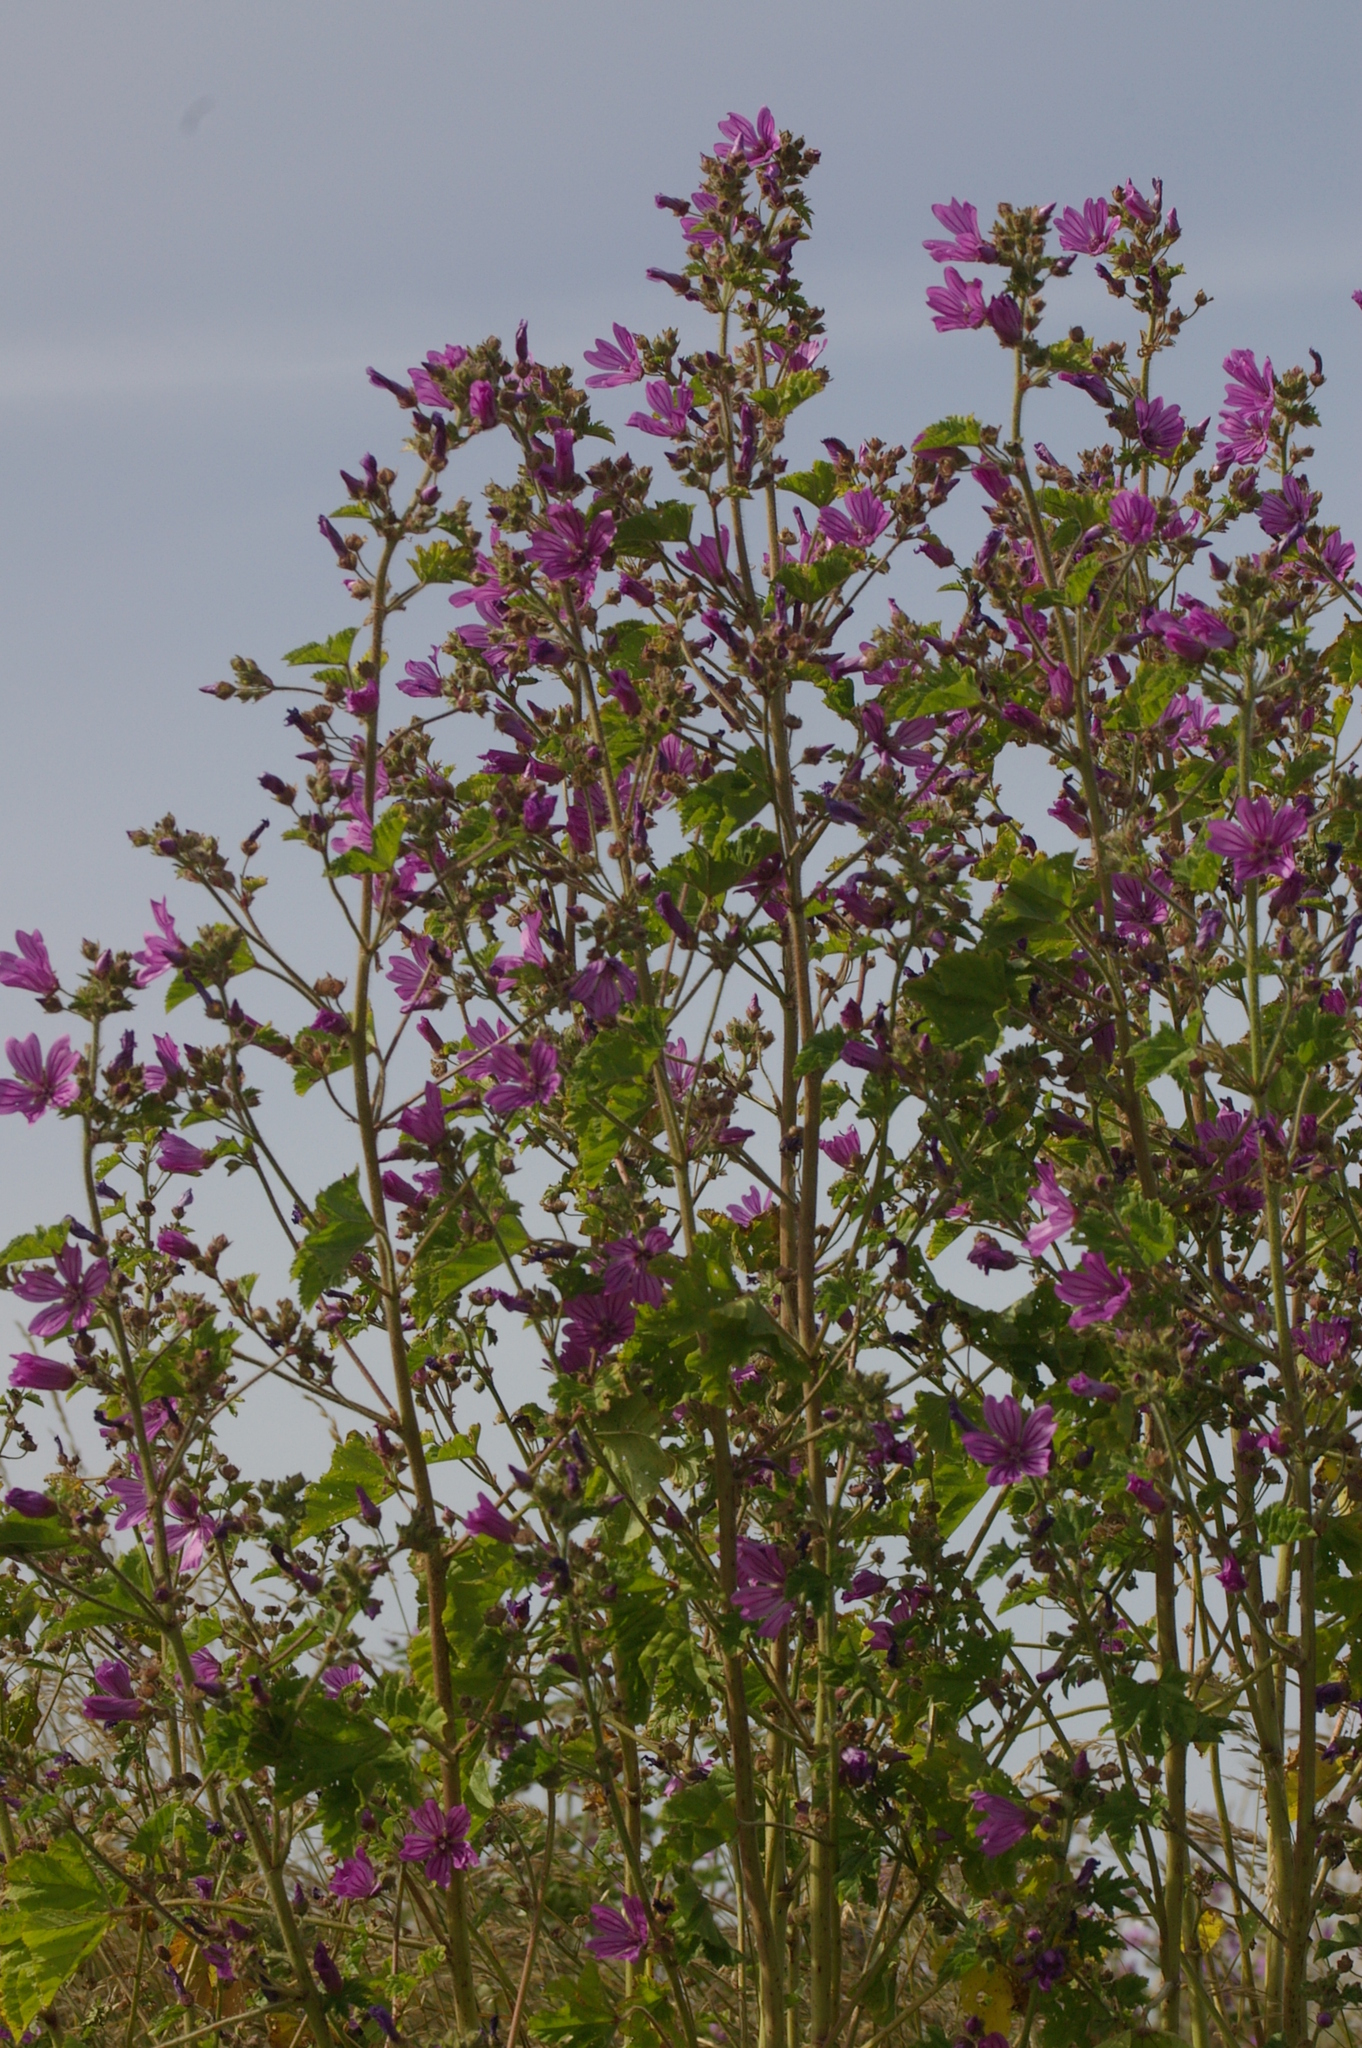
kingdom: Plantae
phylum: Tracheophyta
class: Magnoliopsida
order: Malvales
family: Malvaceae
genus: Malva
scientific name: Malva sylvestris
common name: Common mallow
